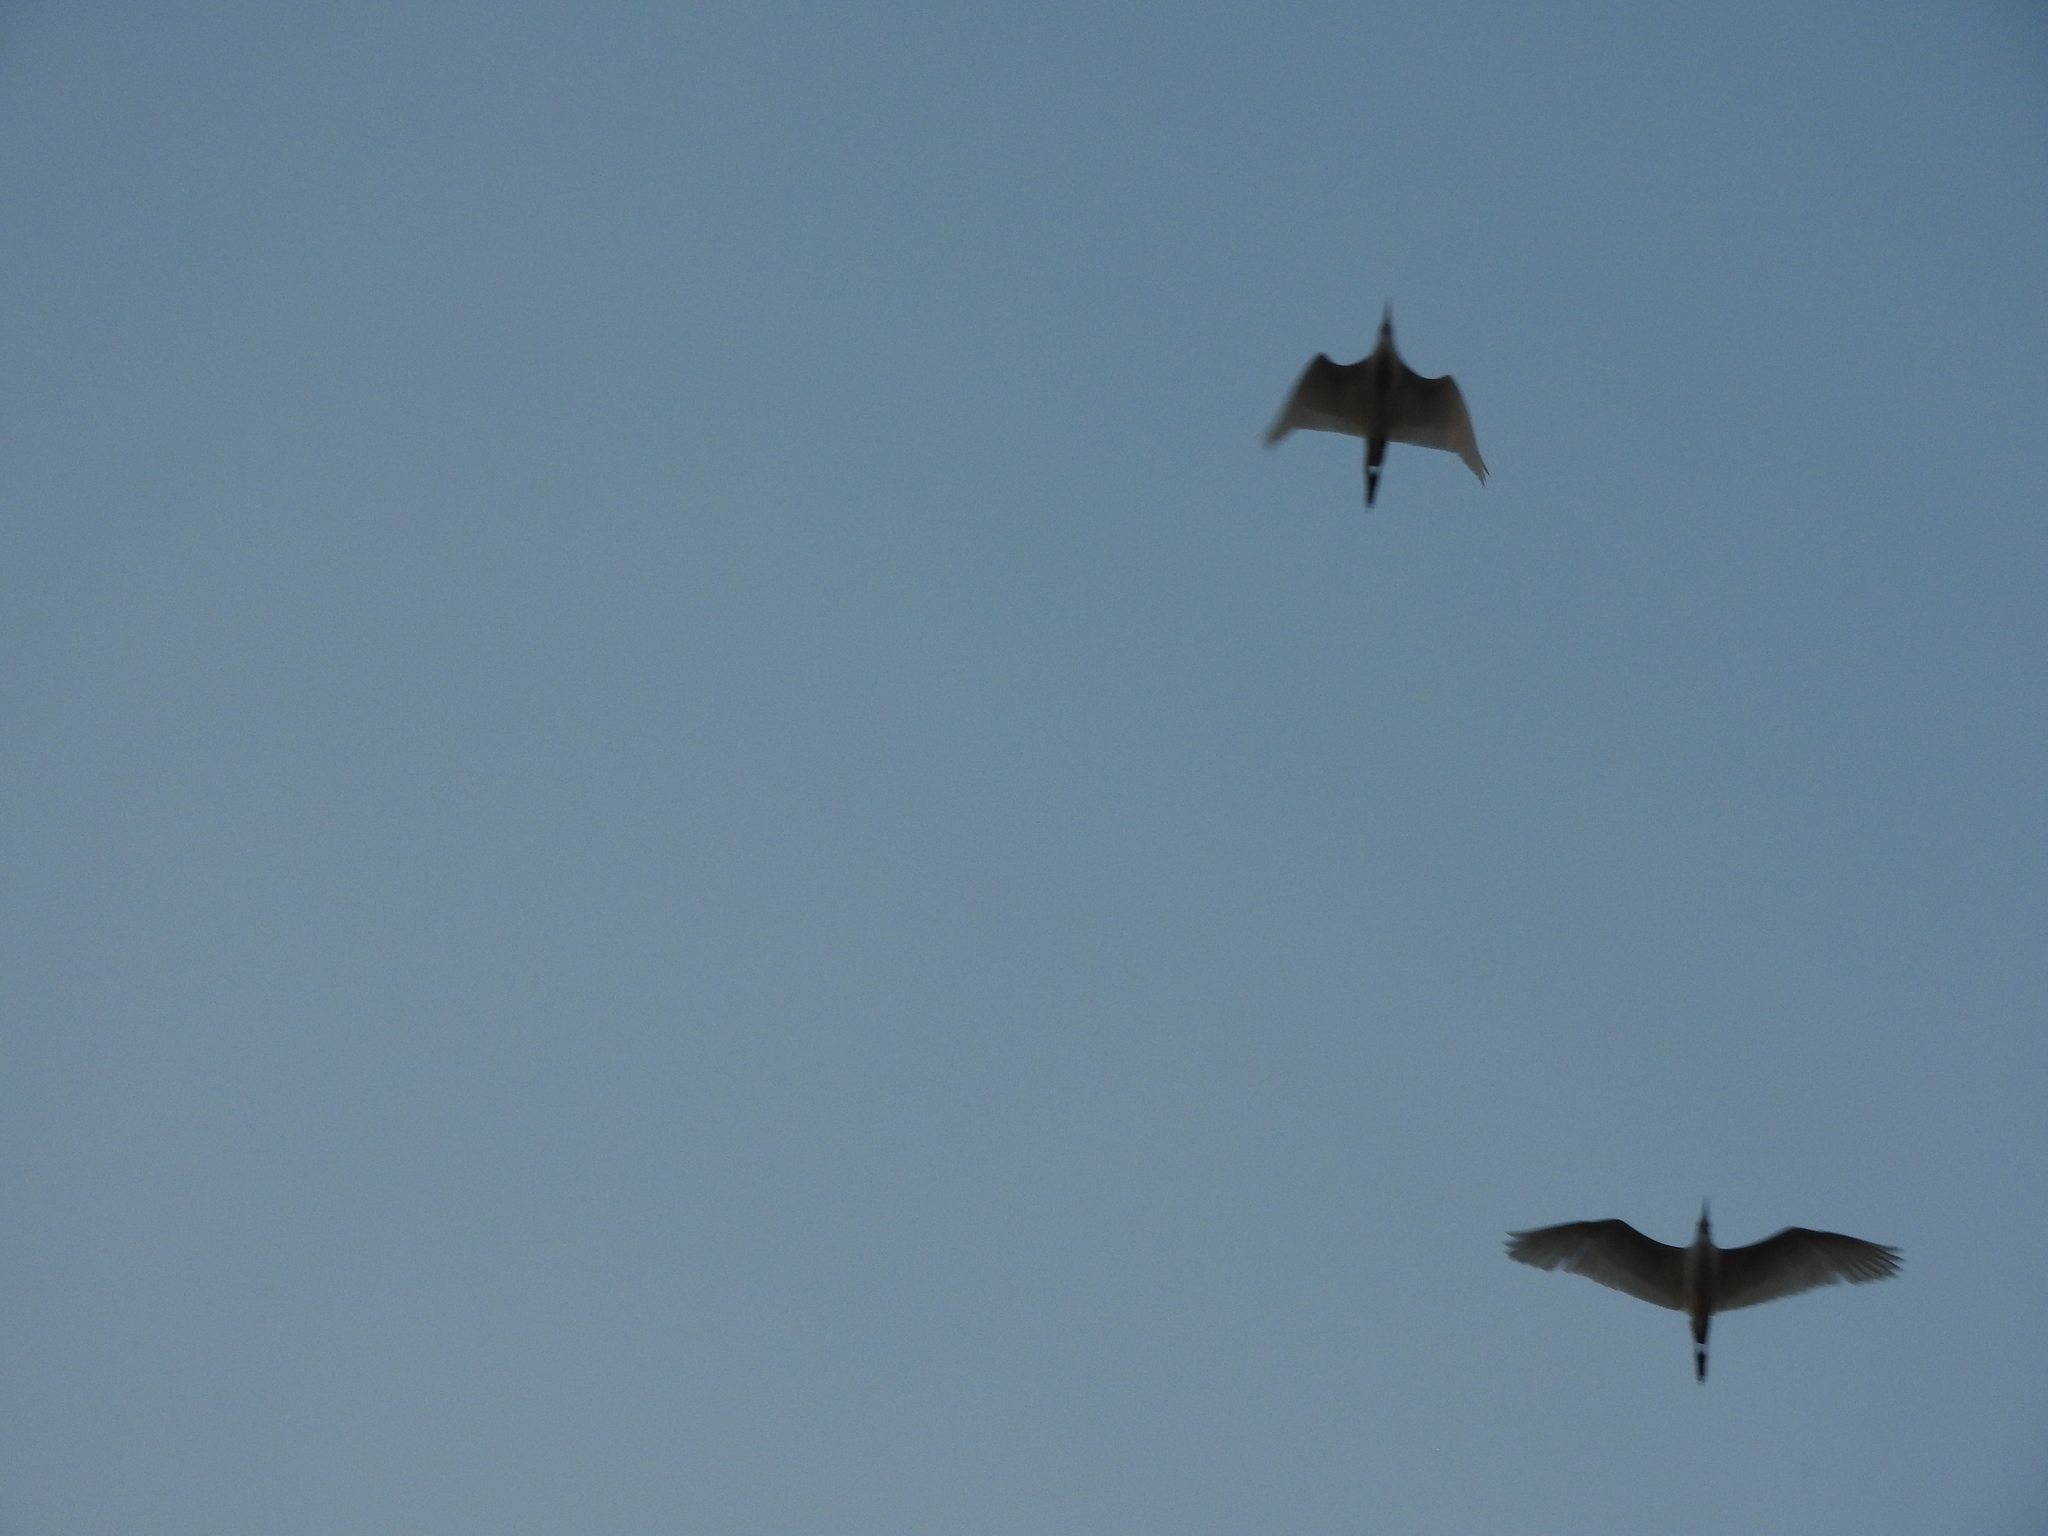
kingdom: Animalia
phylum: Chordata
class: Aves
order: Pelecaniformes
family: Ardeidae
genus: Bubulcus
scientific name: Bubulcus ibis
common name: Cattle egret
